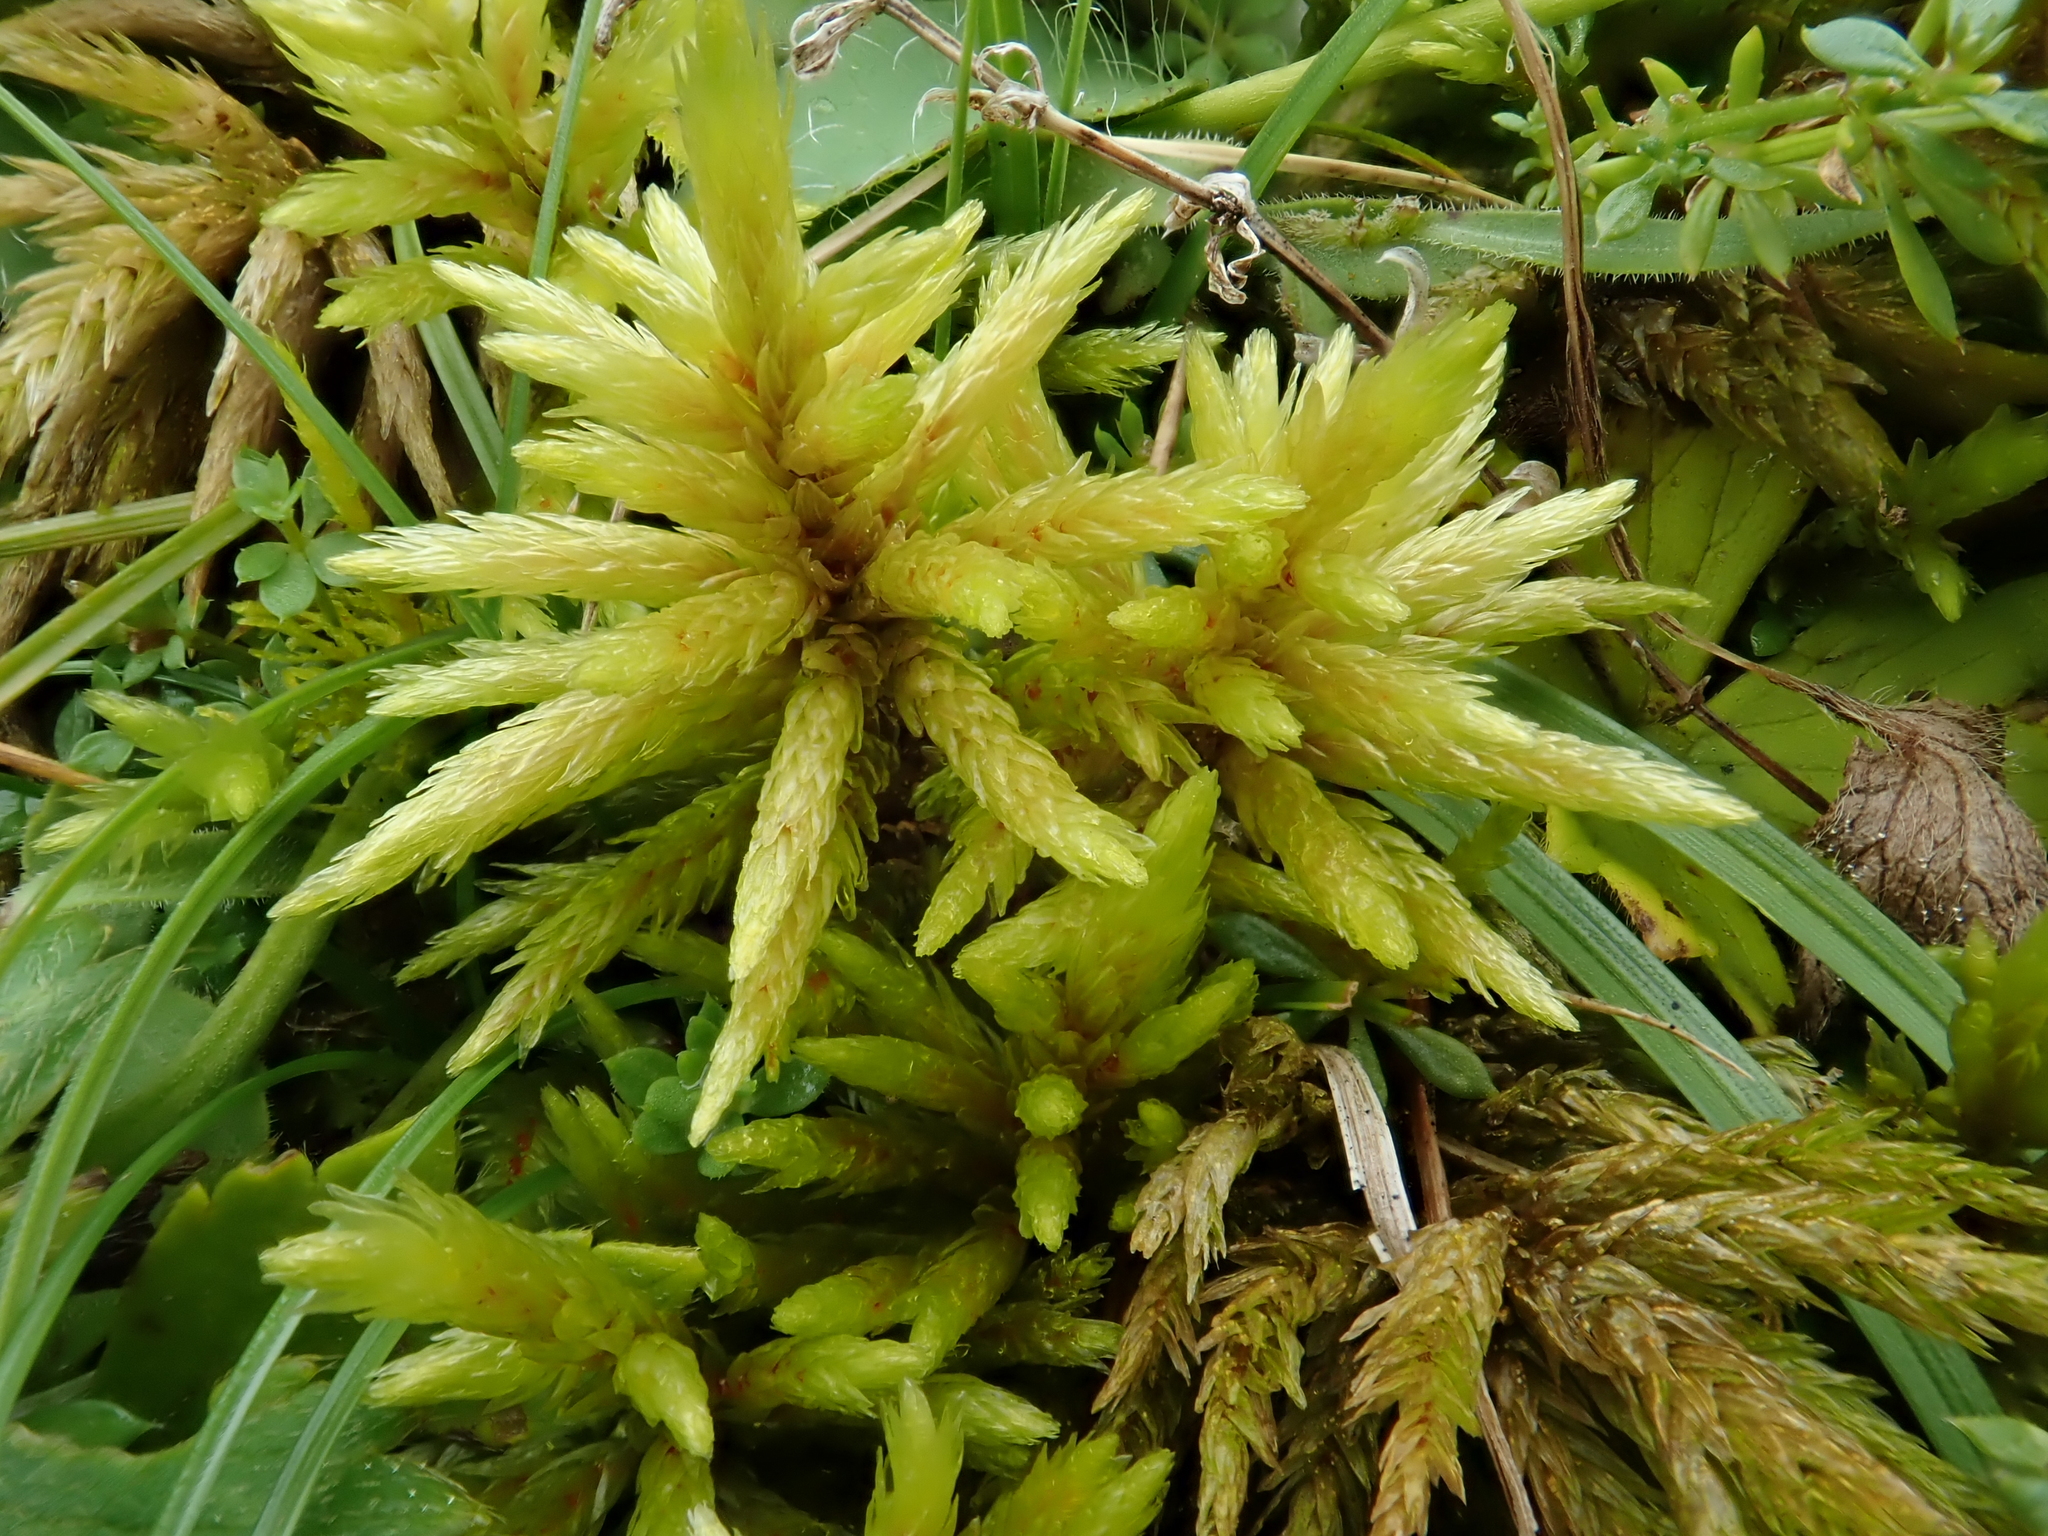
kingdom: Plantae
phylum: Bryophyta
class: Bryopsida
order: Hypnales
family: Climaciaceae
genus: Climacium
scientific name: Climacium dendroides
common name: Northern tree moss
